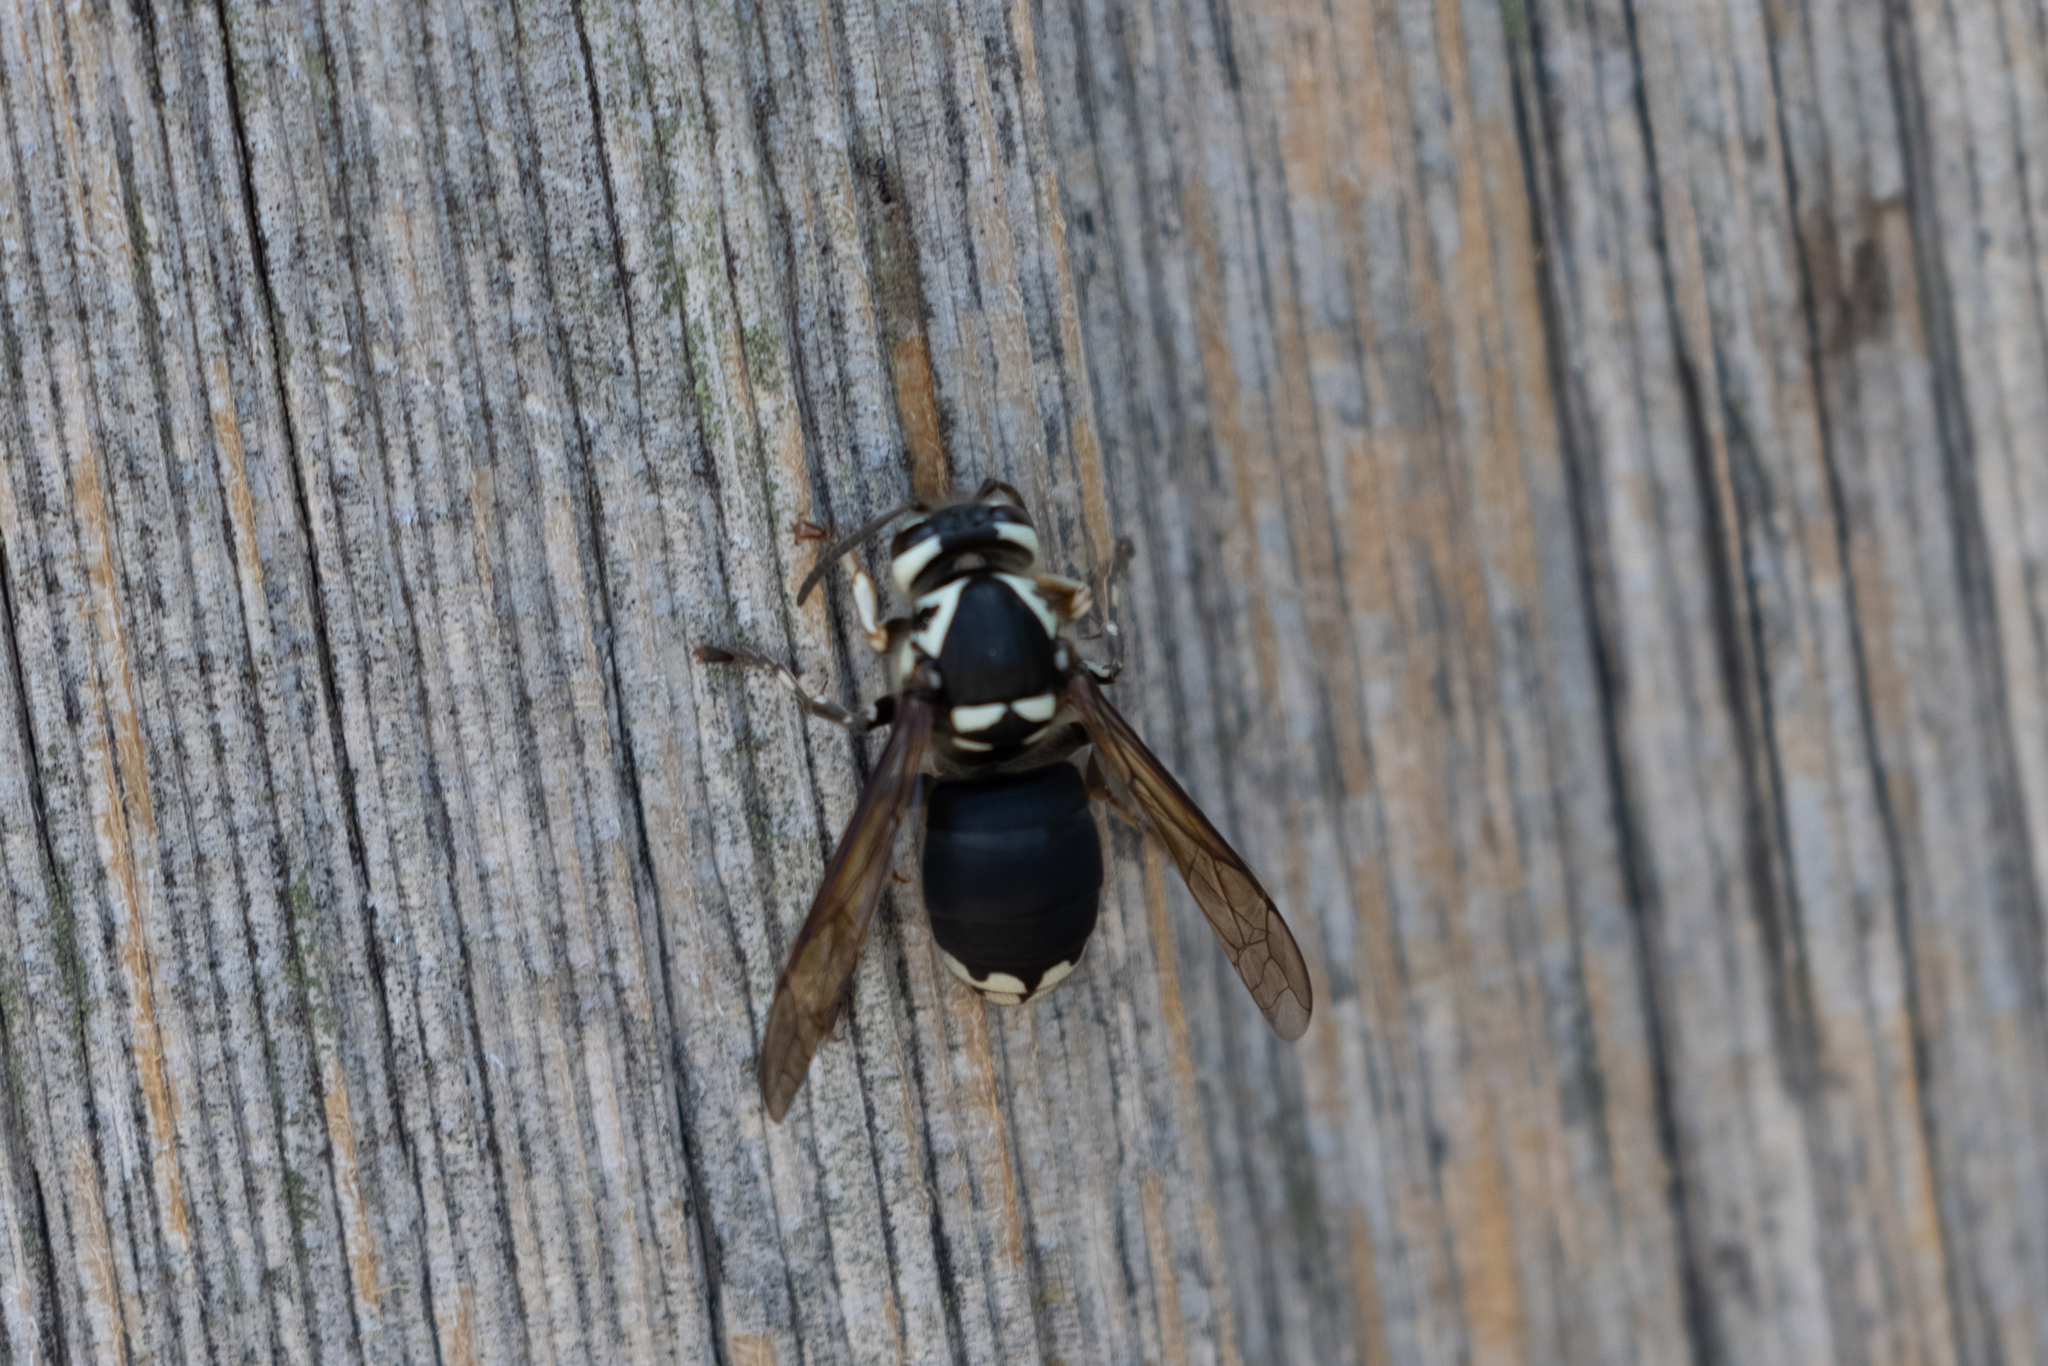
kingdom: Animalia
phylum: Arthropoda
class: Insecta
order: Hymenoptera
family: Vespidae
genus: Dolichovespula
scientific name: Dolichovespula maculata
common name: Bald-faced hornet
